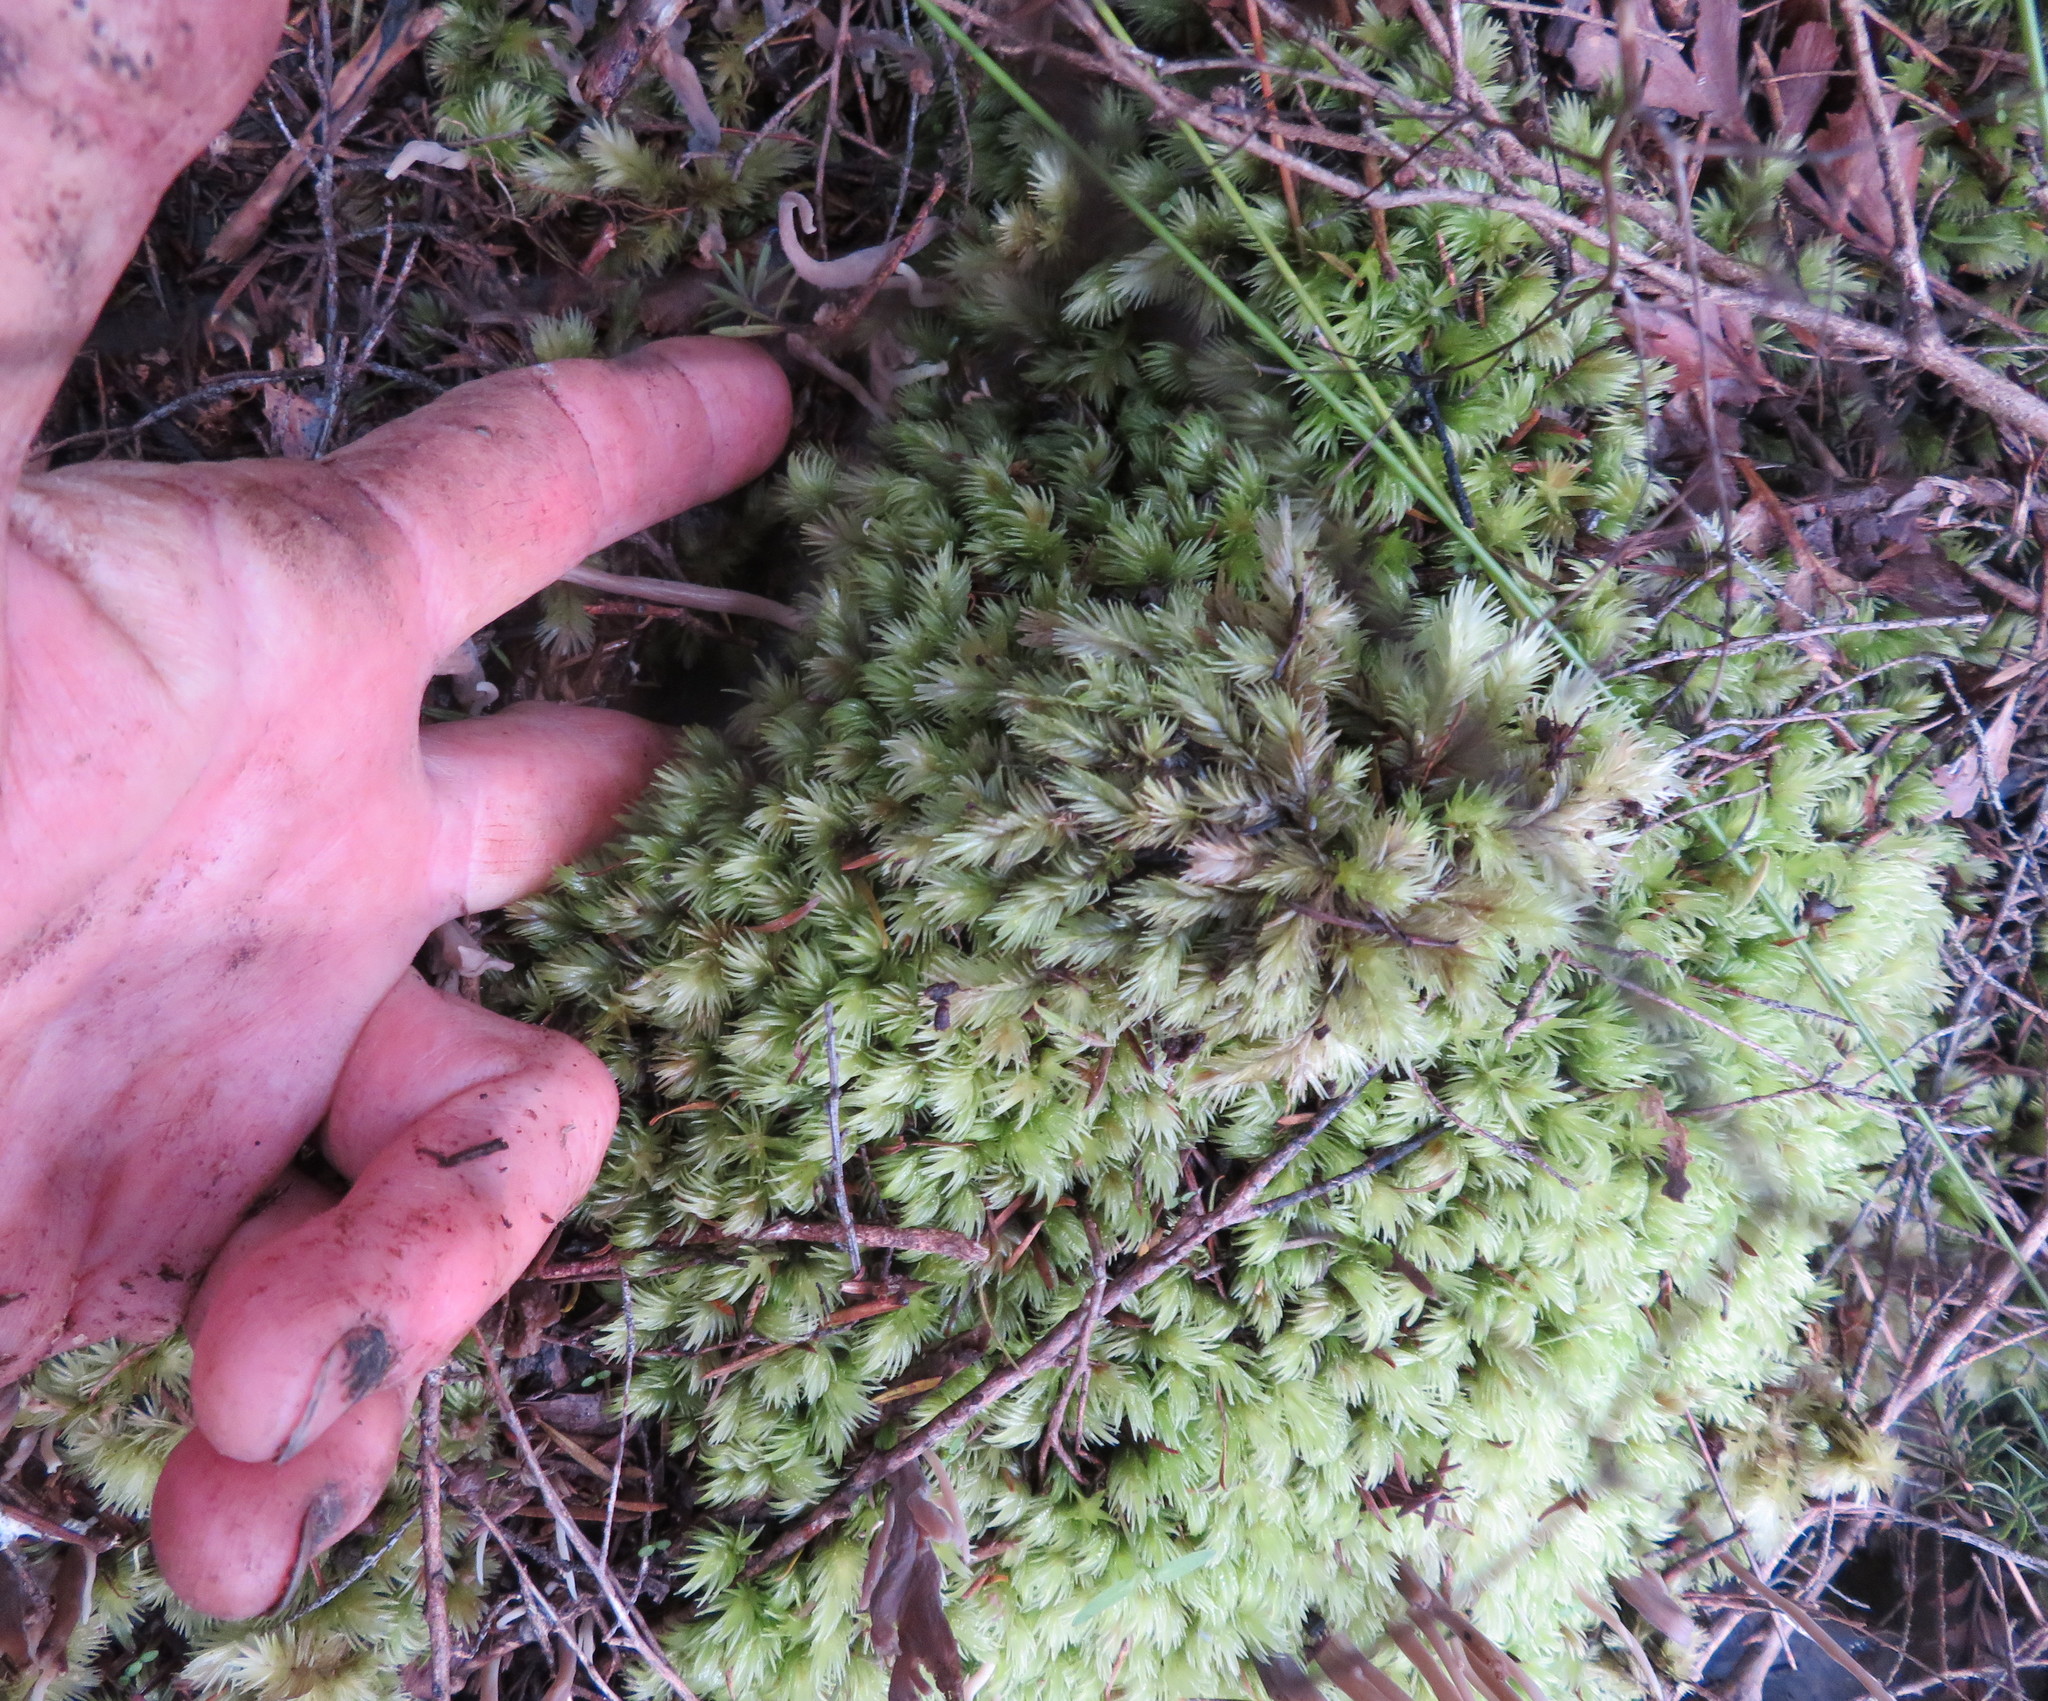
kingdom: Plantae
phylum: Bryophyta
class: Bryopsida
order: Dicranales
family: Leucobryaceae
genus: Leucobryum
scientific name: Leucobryum javense
